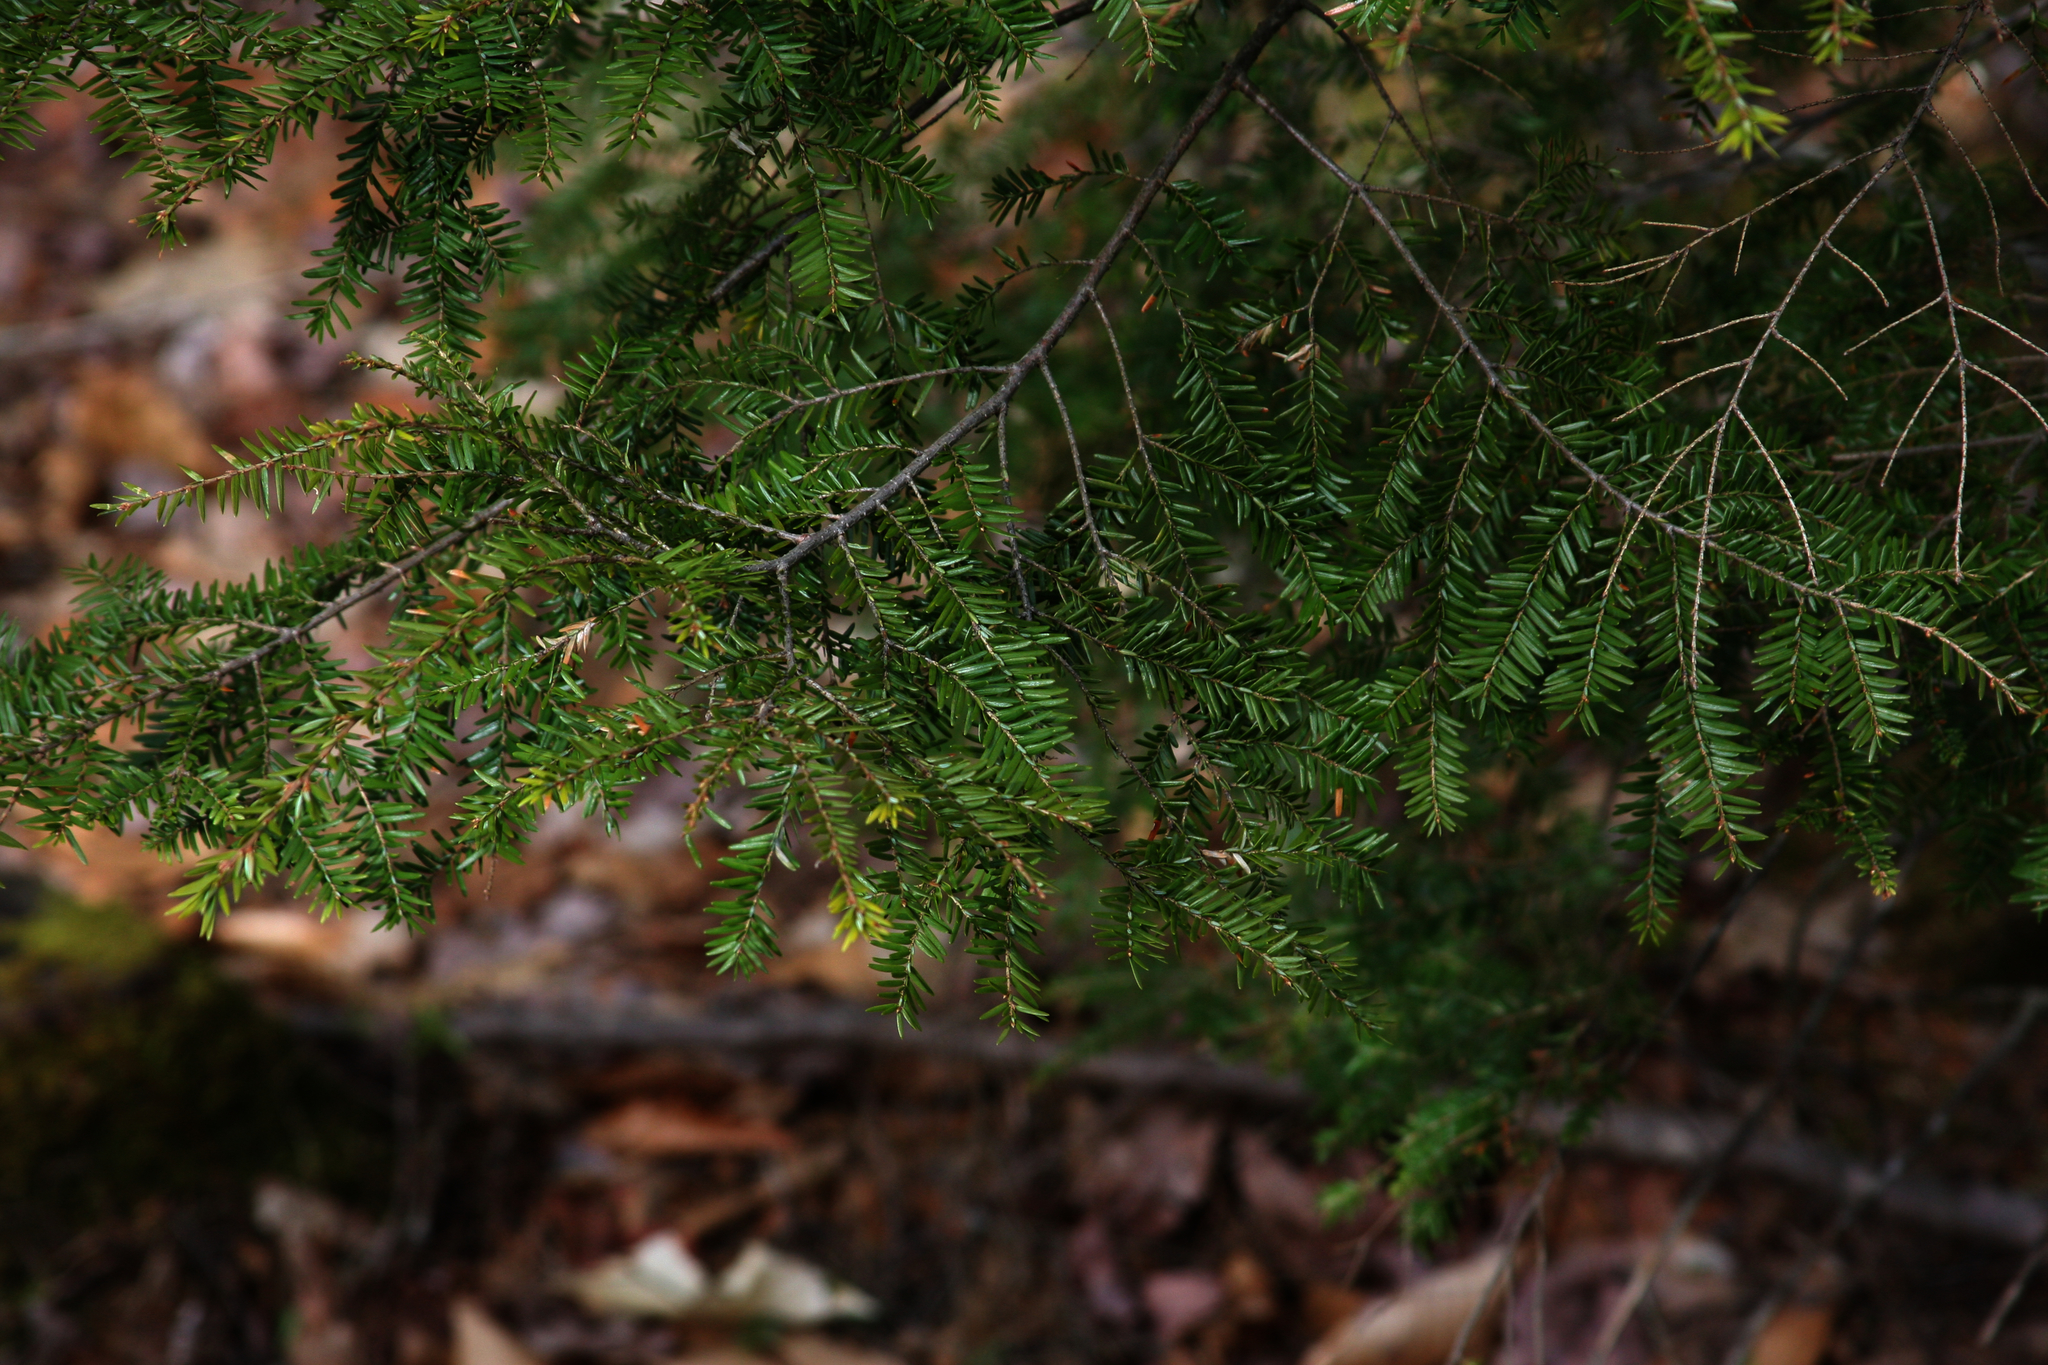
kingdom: Plantae
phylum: Tracheophyta
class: Pinopsida
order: Pinales
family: Pinaceae
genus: Tsuga
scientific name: Tsuga canadensis
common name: Eastern hemlock
